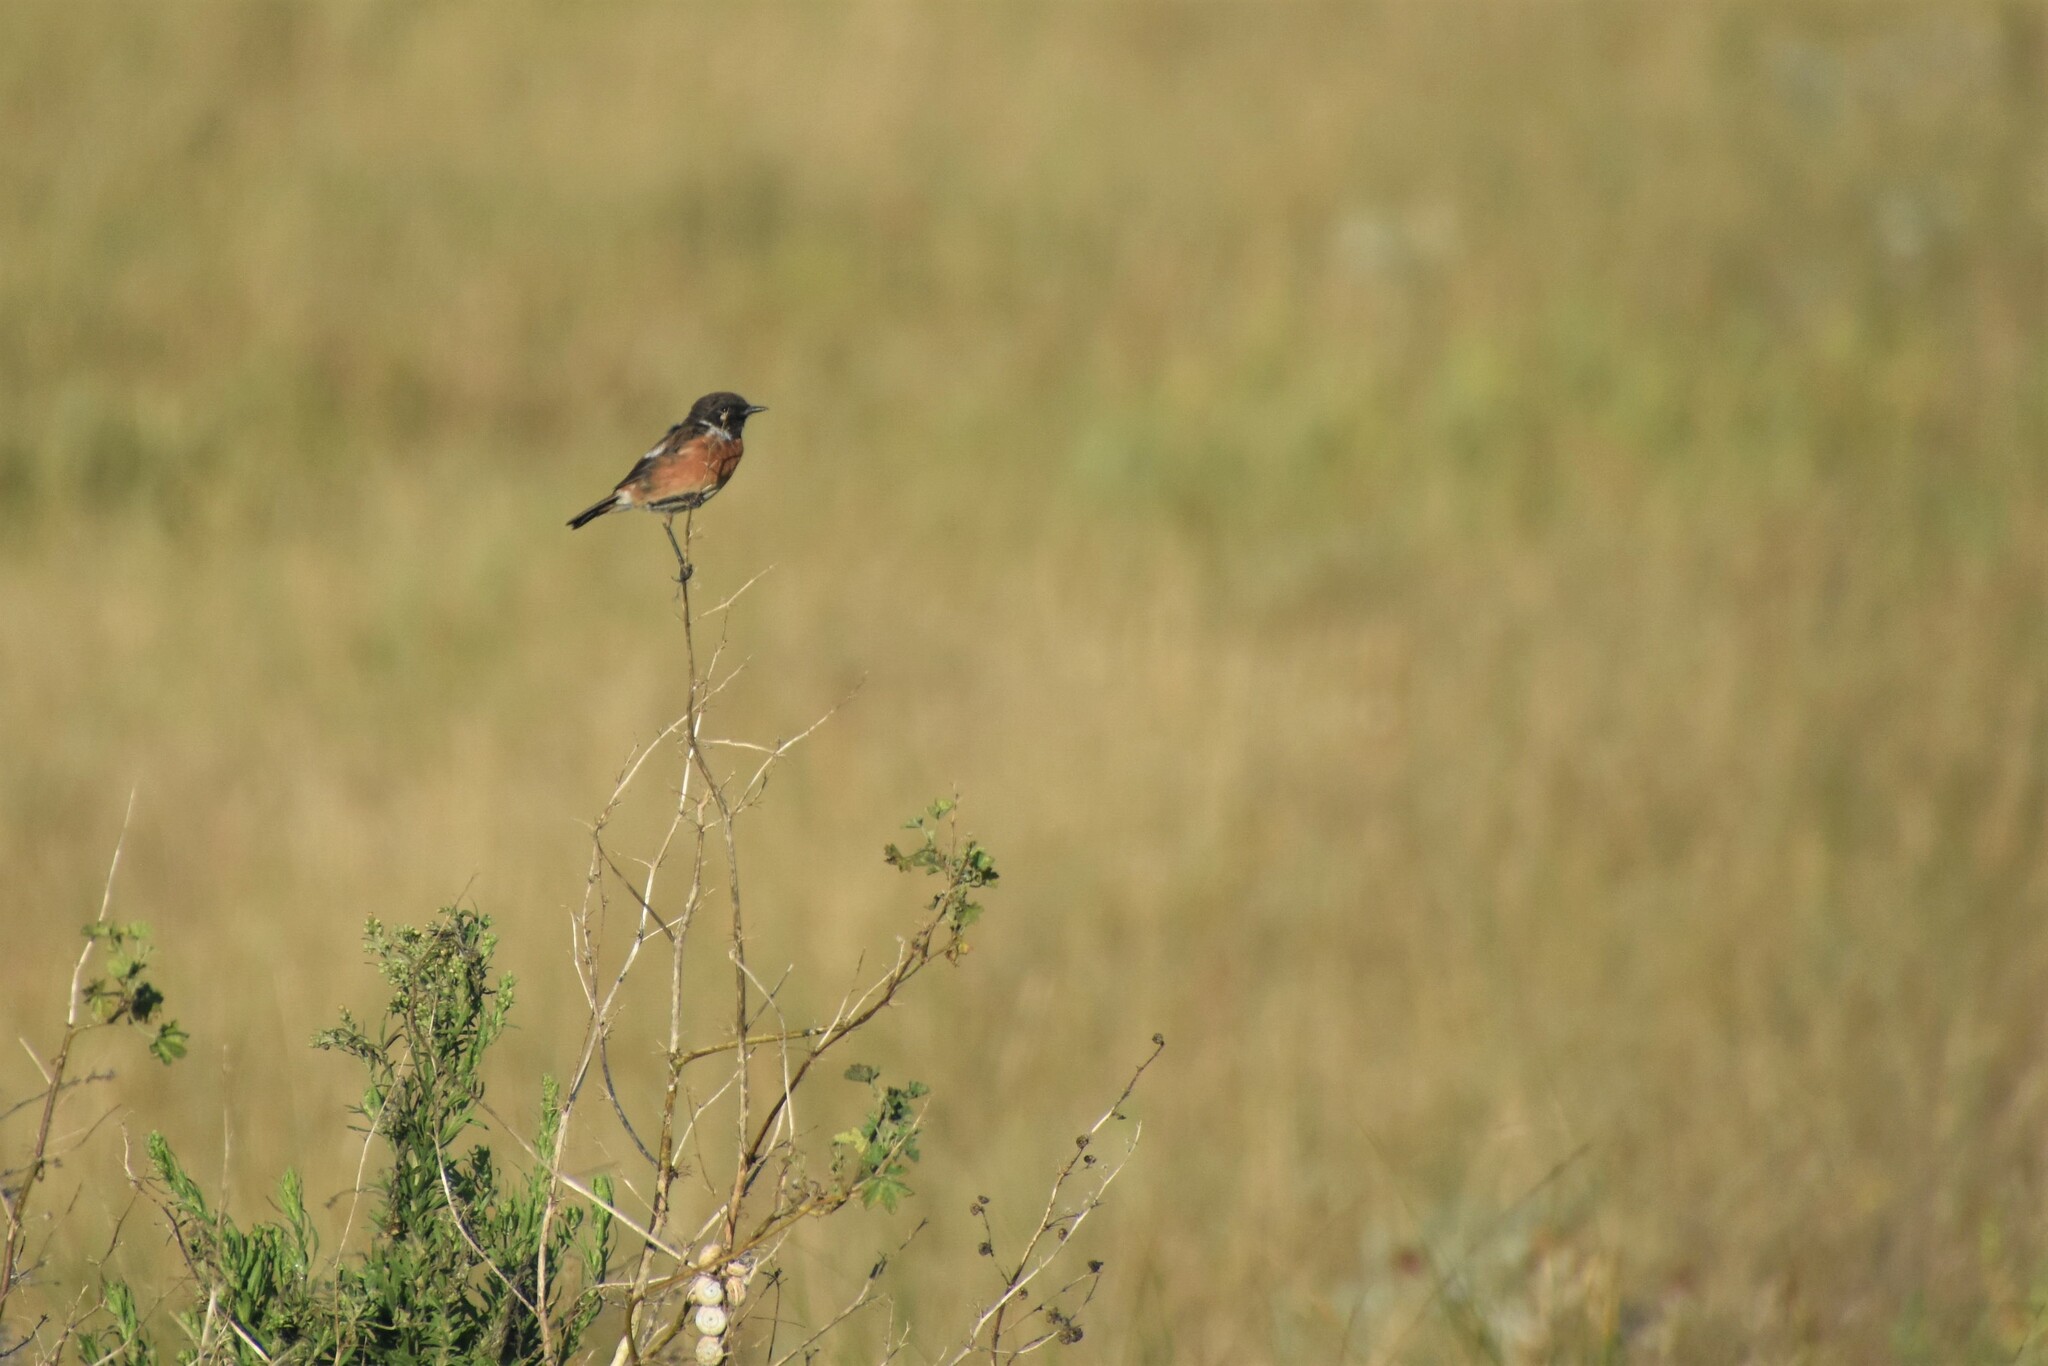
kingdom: Animalia
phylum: Chordata
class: Aves
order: Passeriformes
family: Muscicapidae
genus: Saxicola
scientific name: Saxicola rubicola
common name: European stonechat
